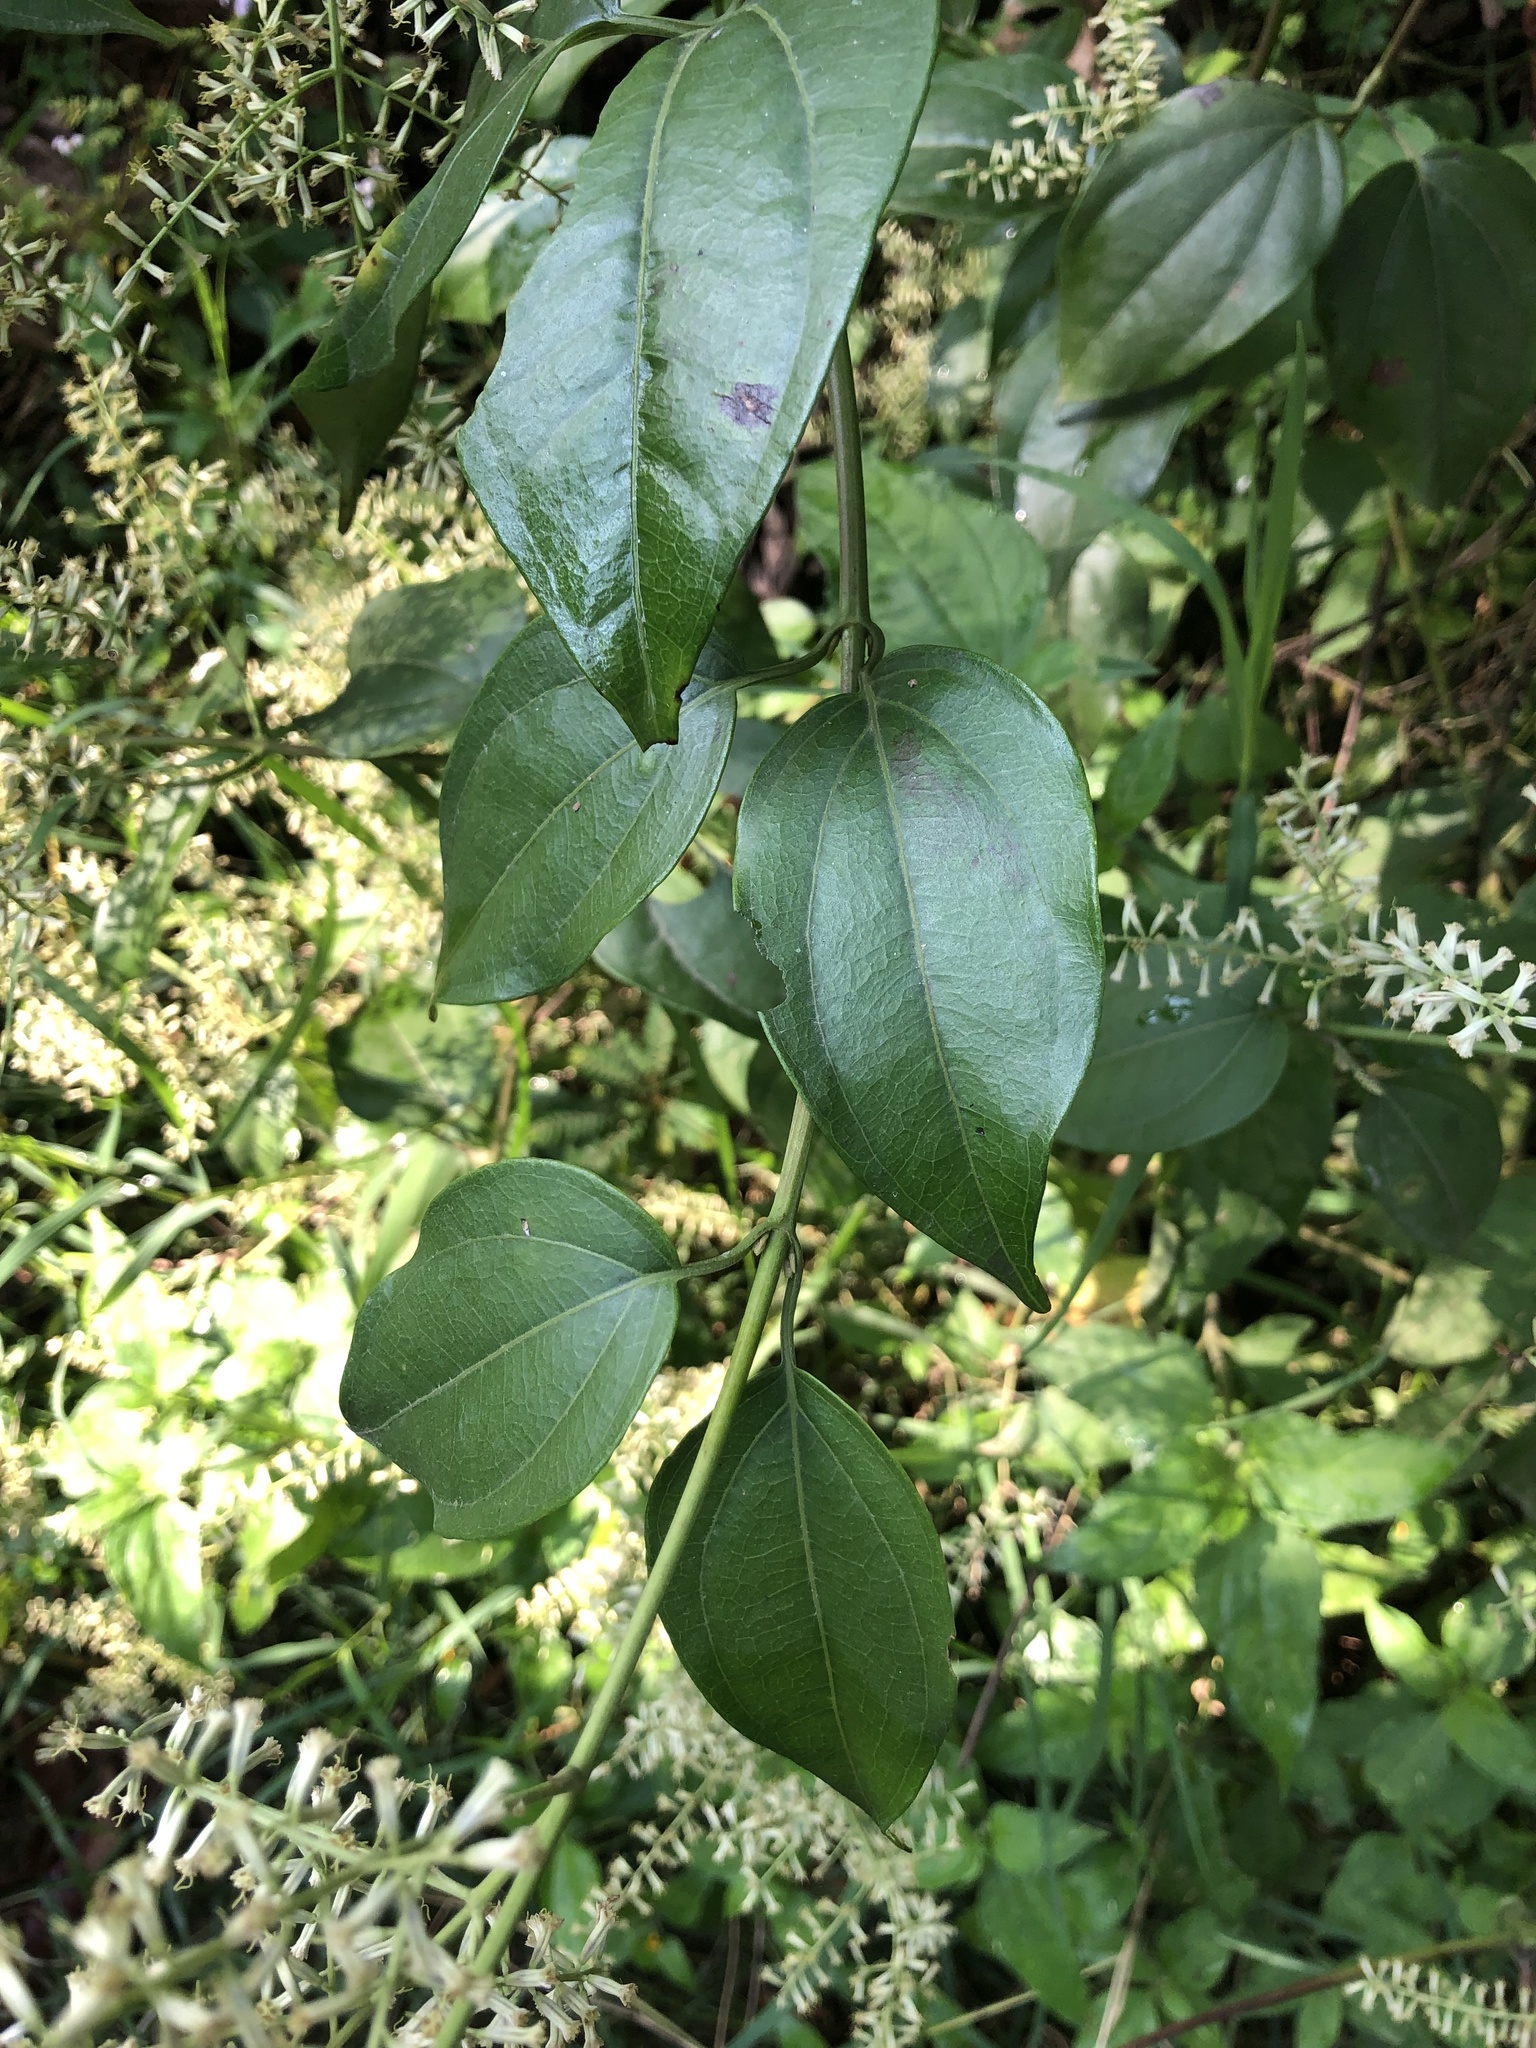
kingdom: Plantae
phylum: Tracheophyta
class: Magnoliopsida
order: Asterales
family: Asteraceae
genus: Mikania
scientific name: Mikania psilostachya
